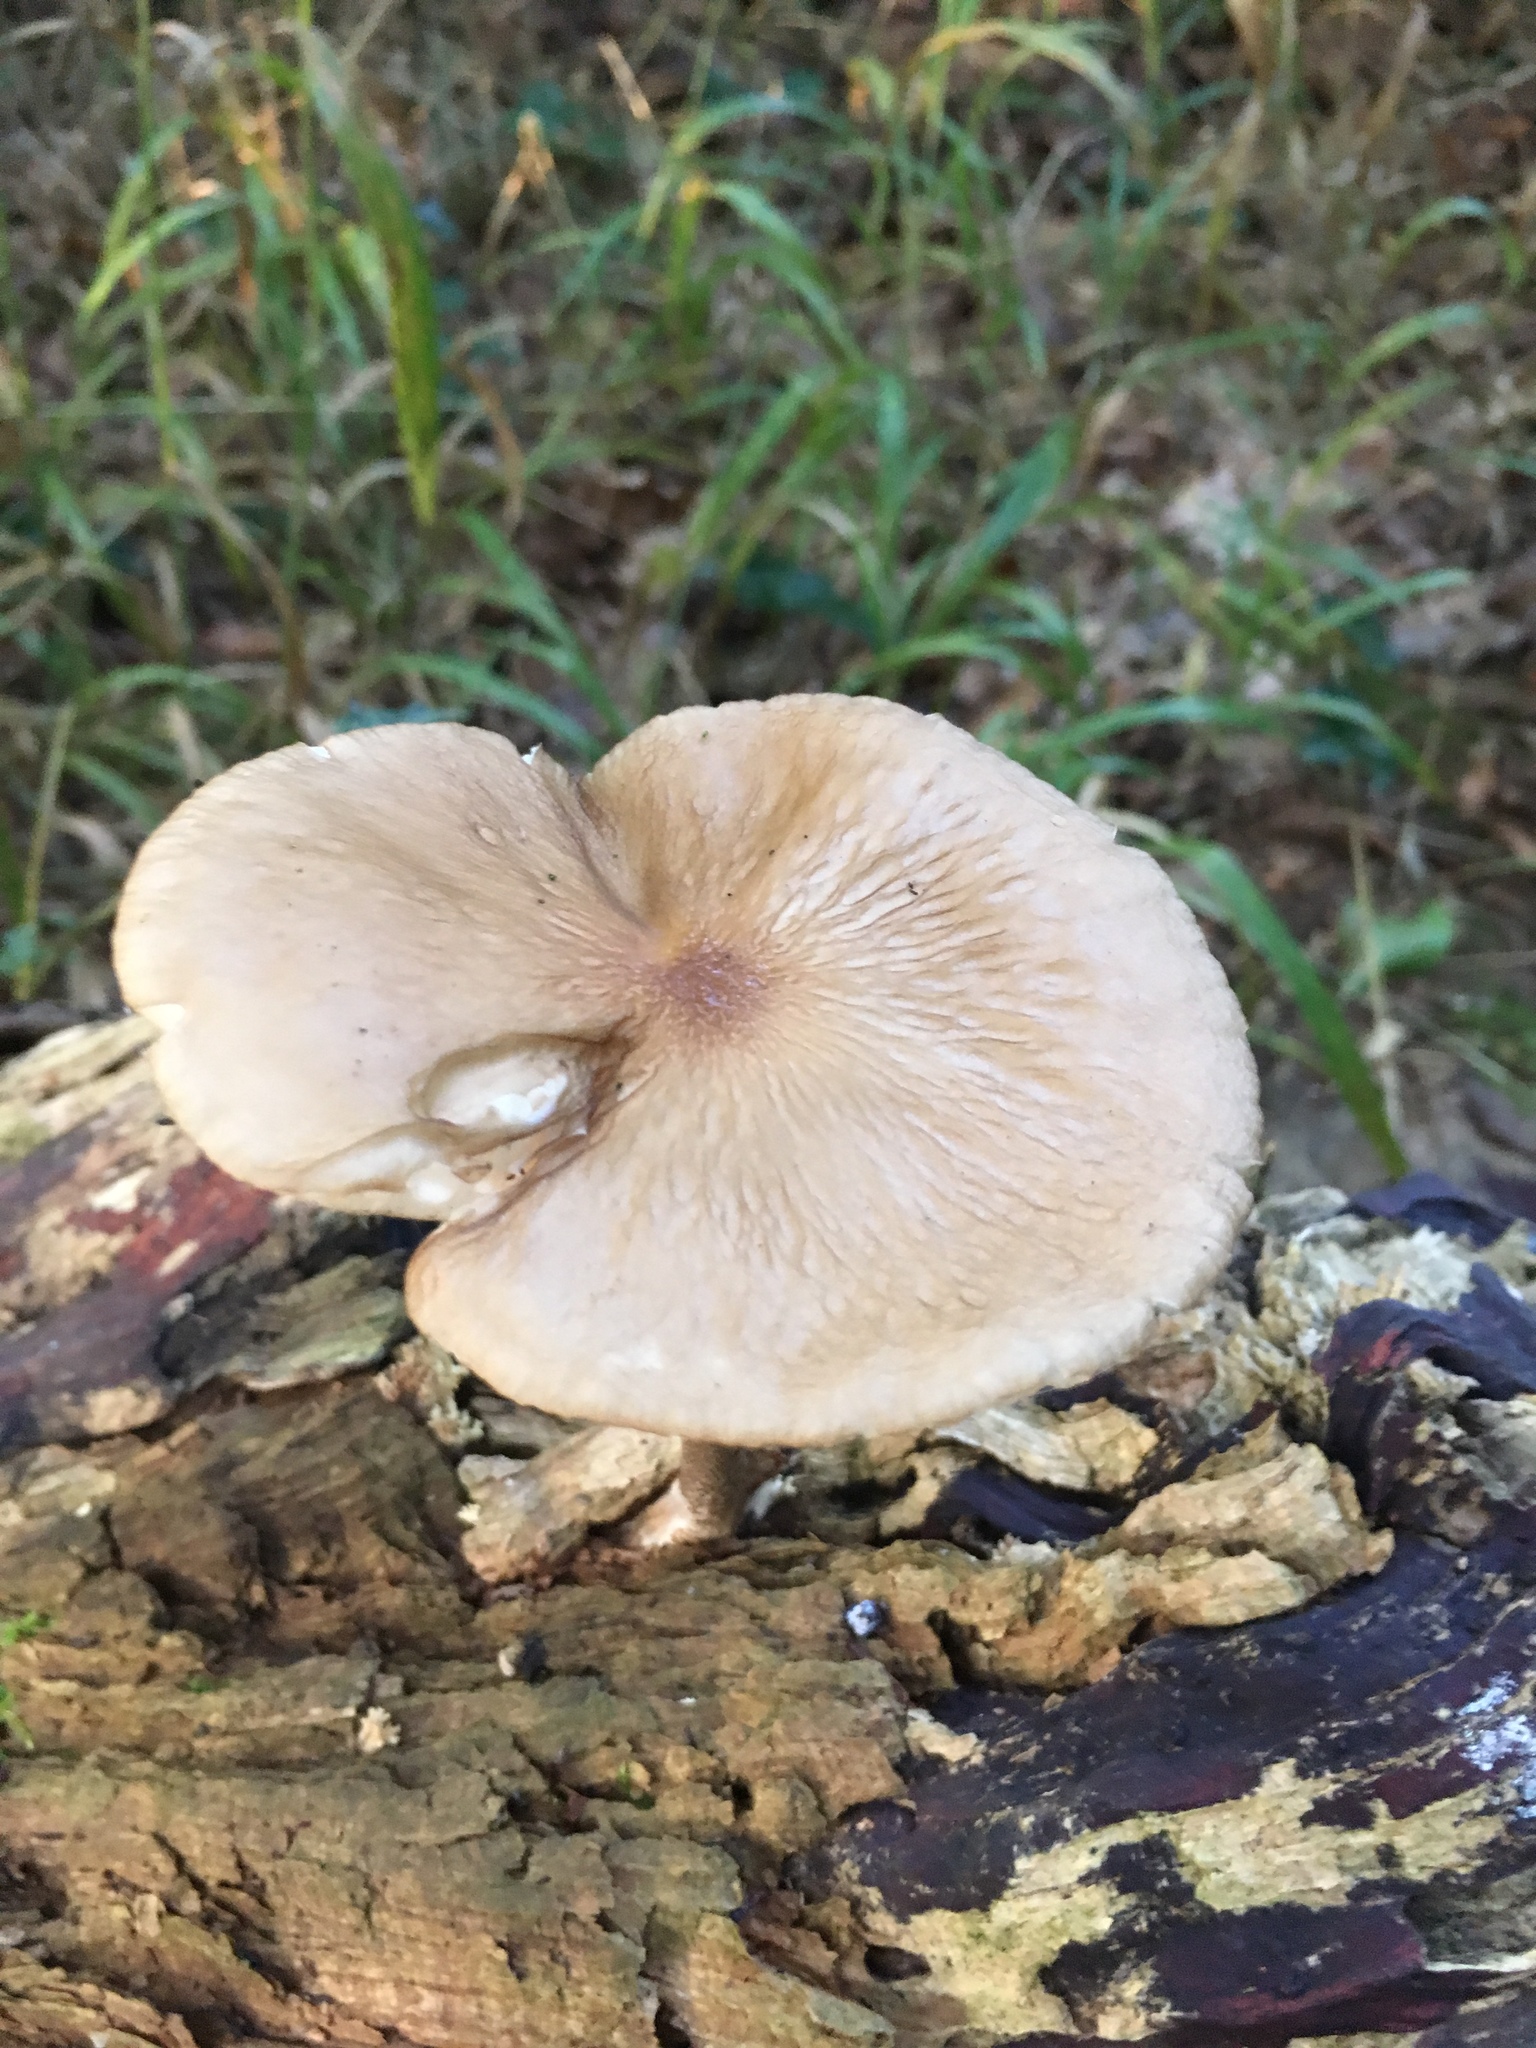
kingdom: Fungi
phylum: Basidiomycota
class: Agaricomycetes
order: Agaricales
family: Physalacriaceae
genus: Hymenopellis
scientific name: Hymenopellis radicata
